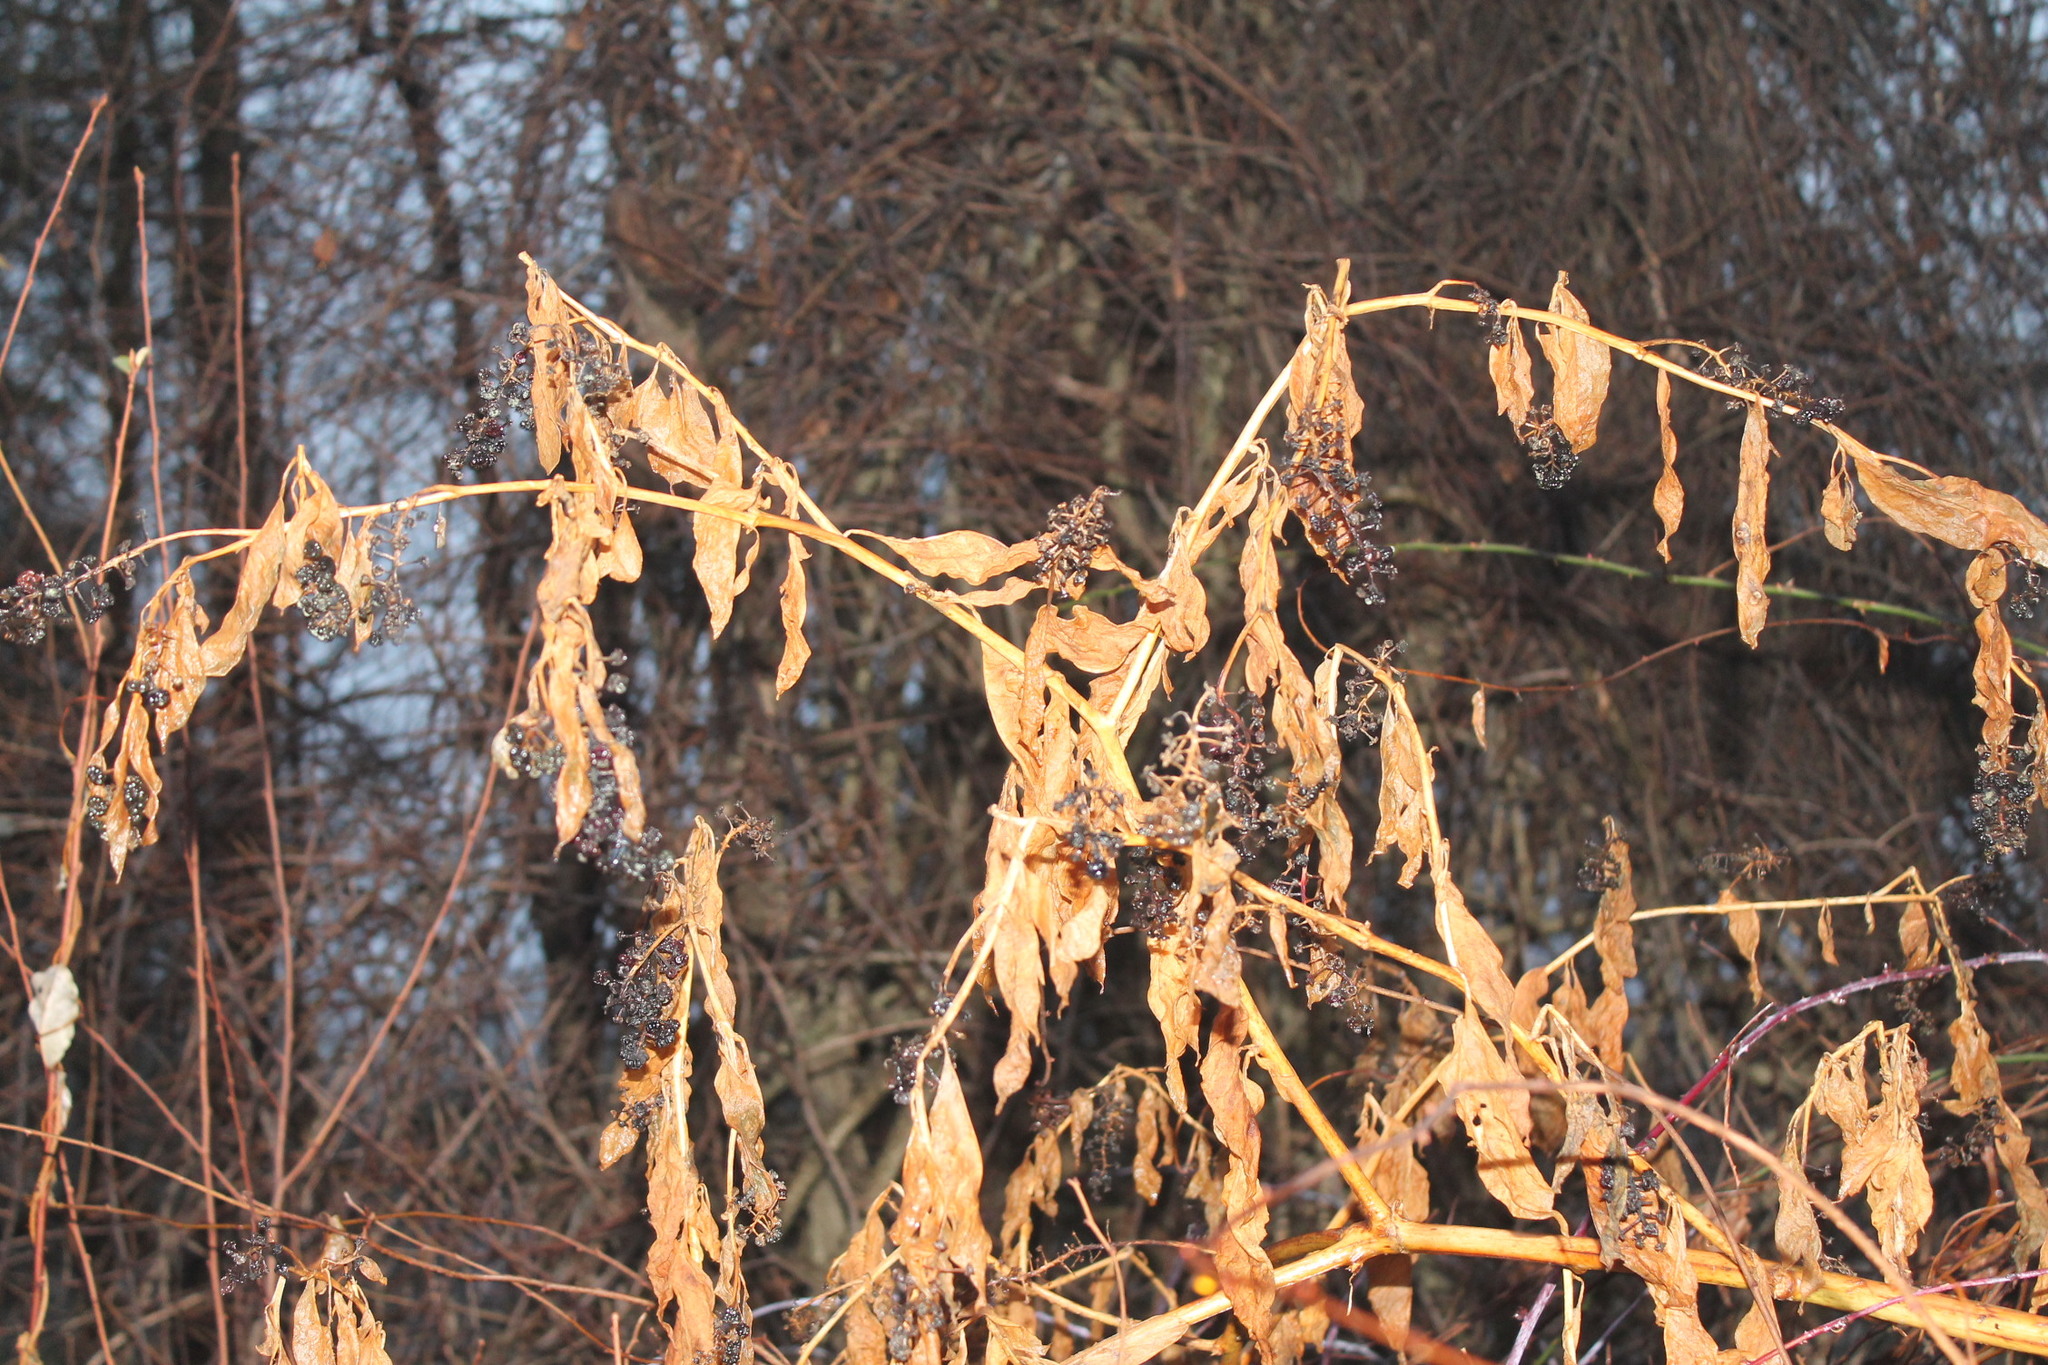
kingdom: Plantae
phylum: Tracheophyta
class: Magnoliopsida
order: Caryophyllales
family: Phytolaccaceae
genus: Phytolacca
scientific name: Phytolacca americana
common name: American pokeweed
